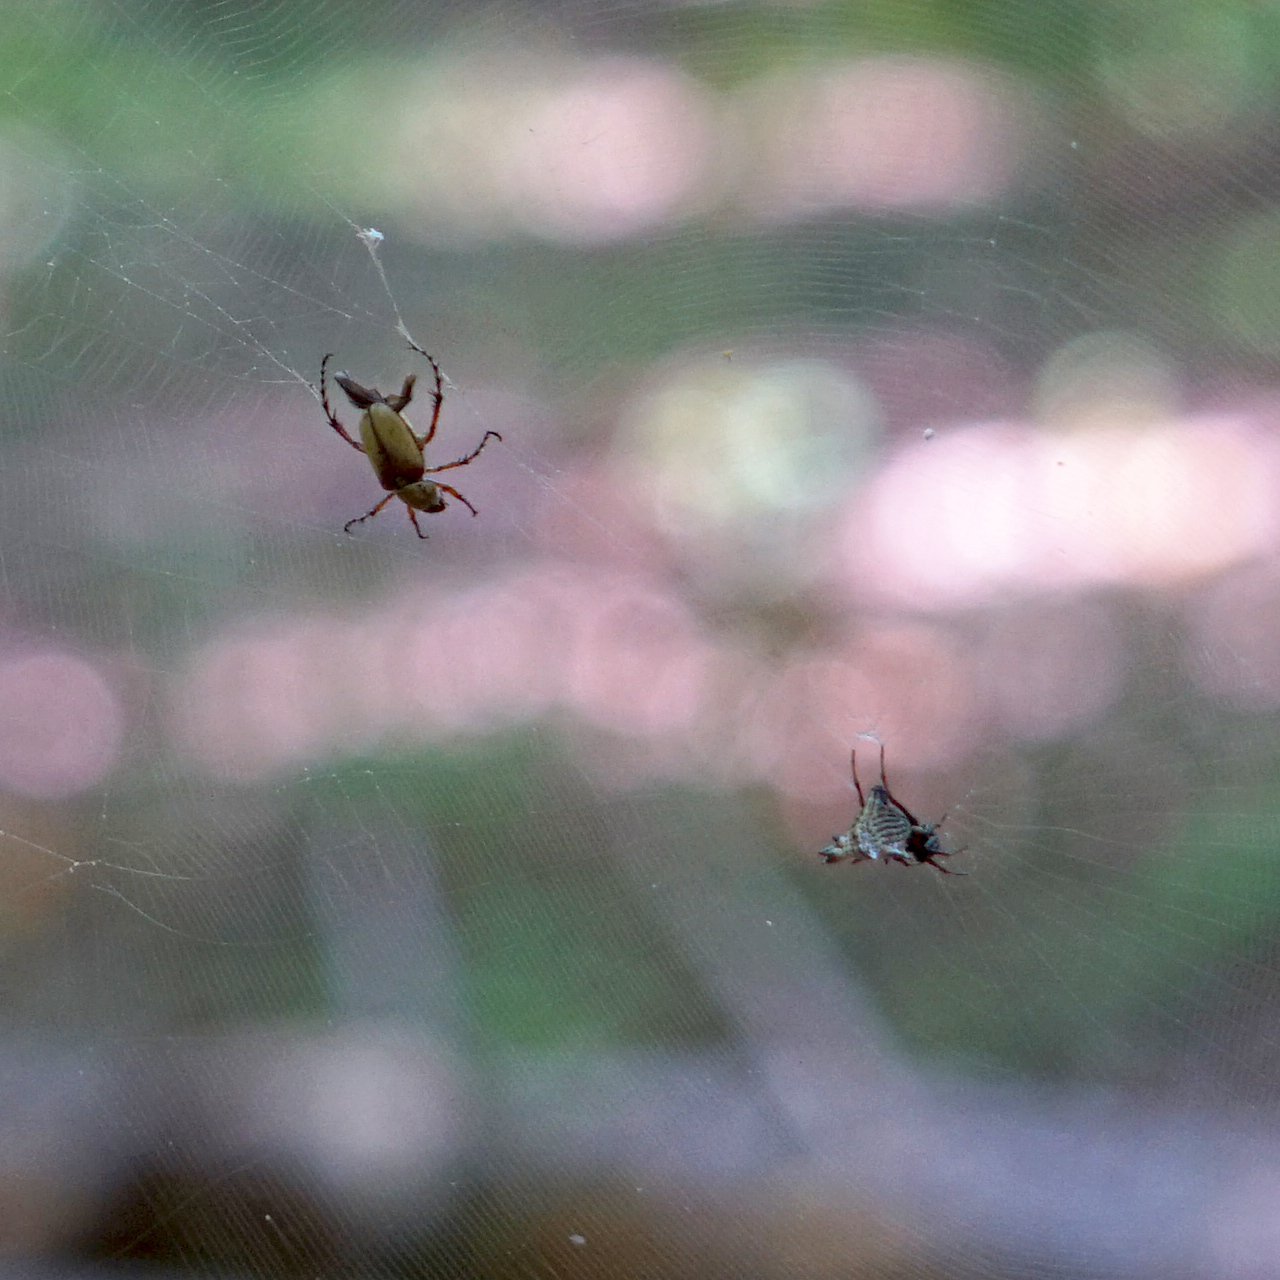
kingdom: Animalia
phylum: Arthropoda
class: Arachnida
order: Araneae
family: Araneidae
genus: Micrathena
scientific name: Micrathena gracilis
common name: Orb weavers
